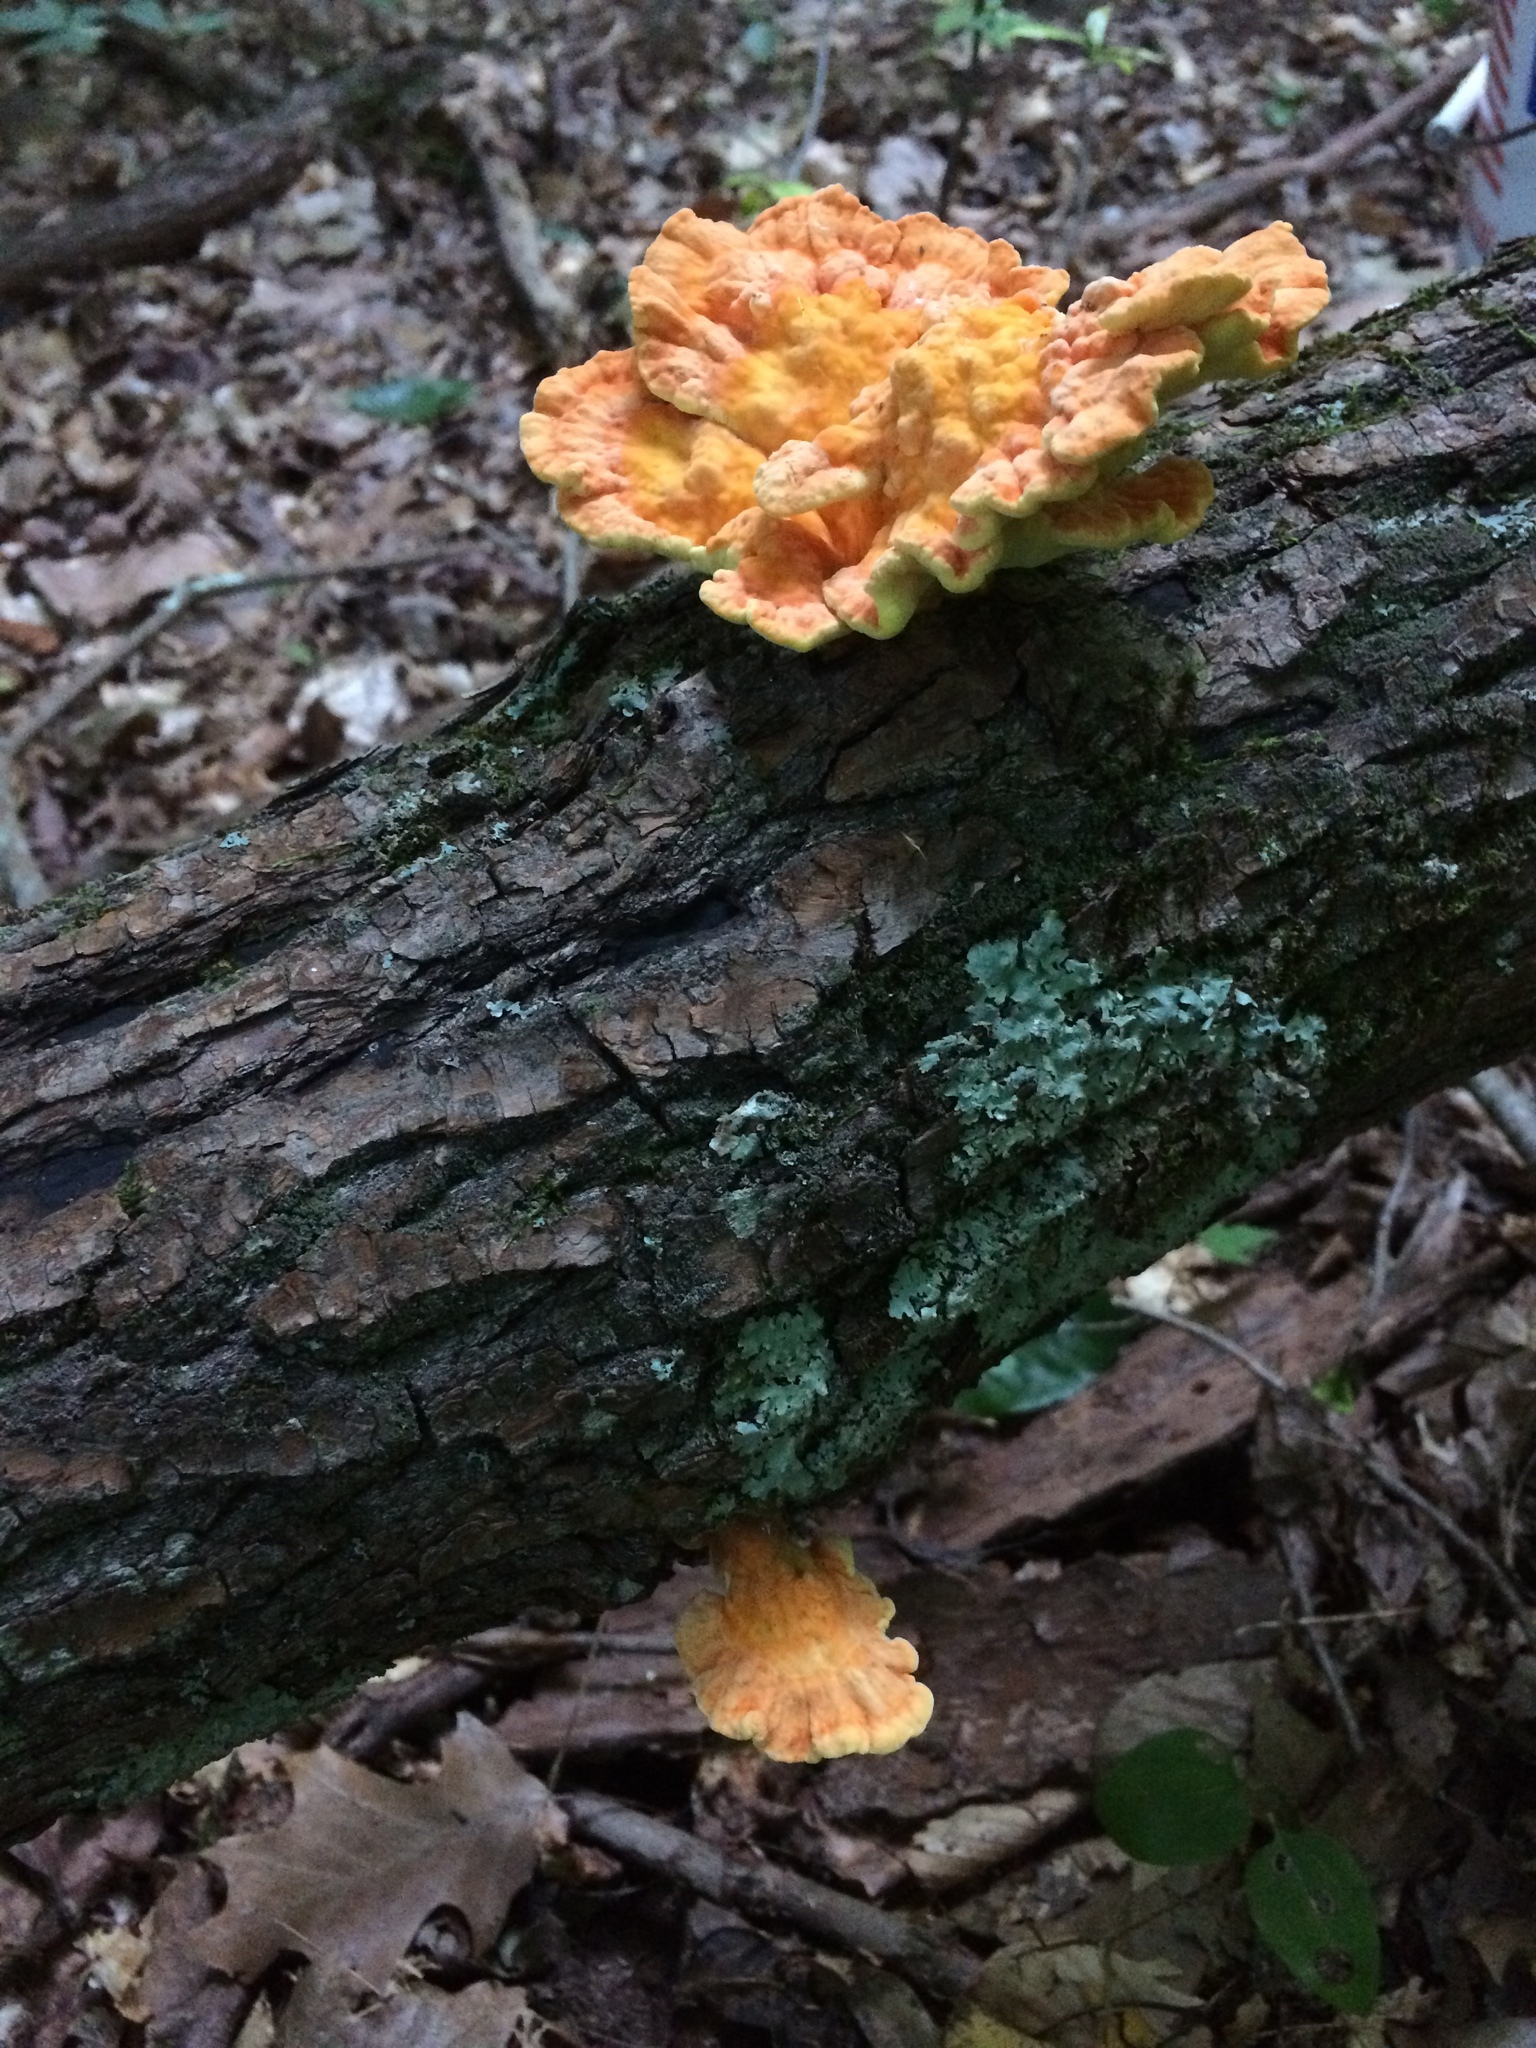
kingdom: Fungi
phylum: Basidiomycota
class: Agaricomycetes
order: Polyporales
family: Laetiporaceae
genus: Laetiporus
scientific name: Laetiporus sulphureus
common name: Chicken of the woods
